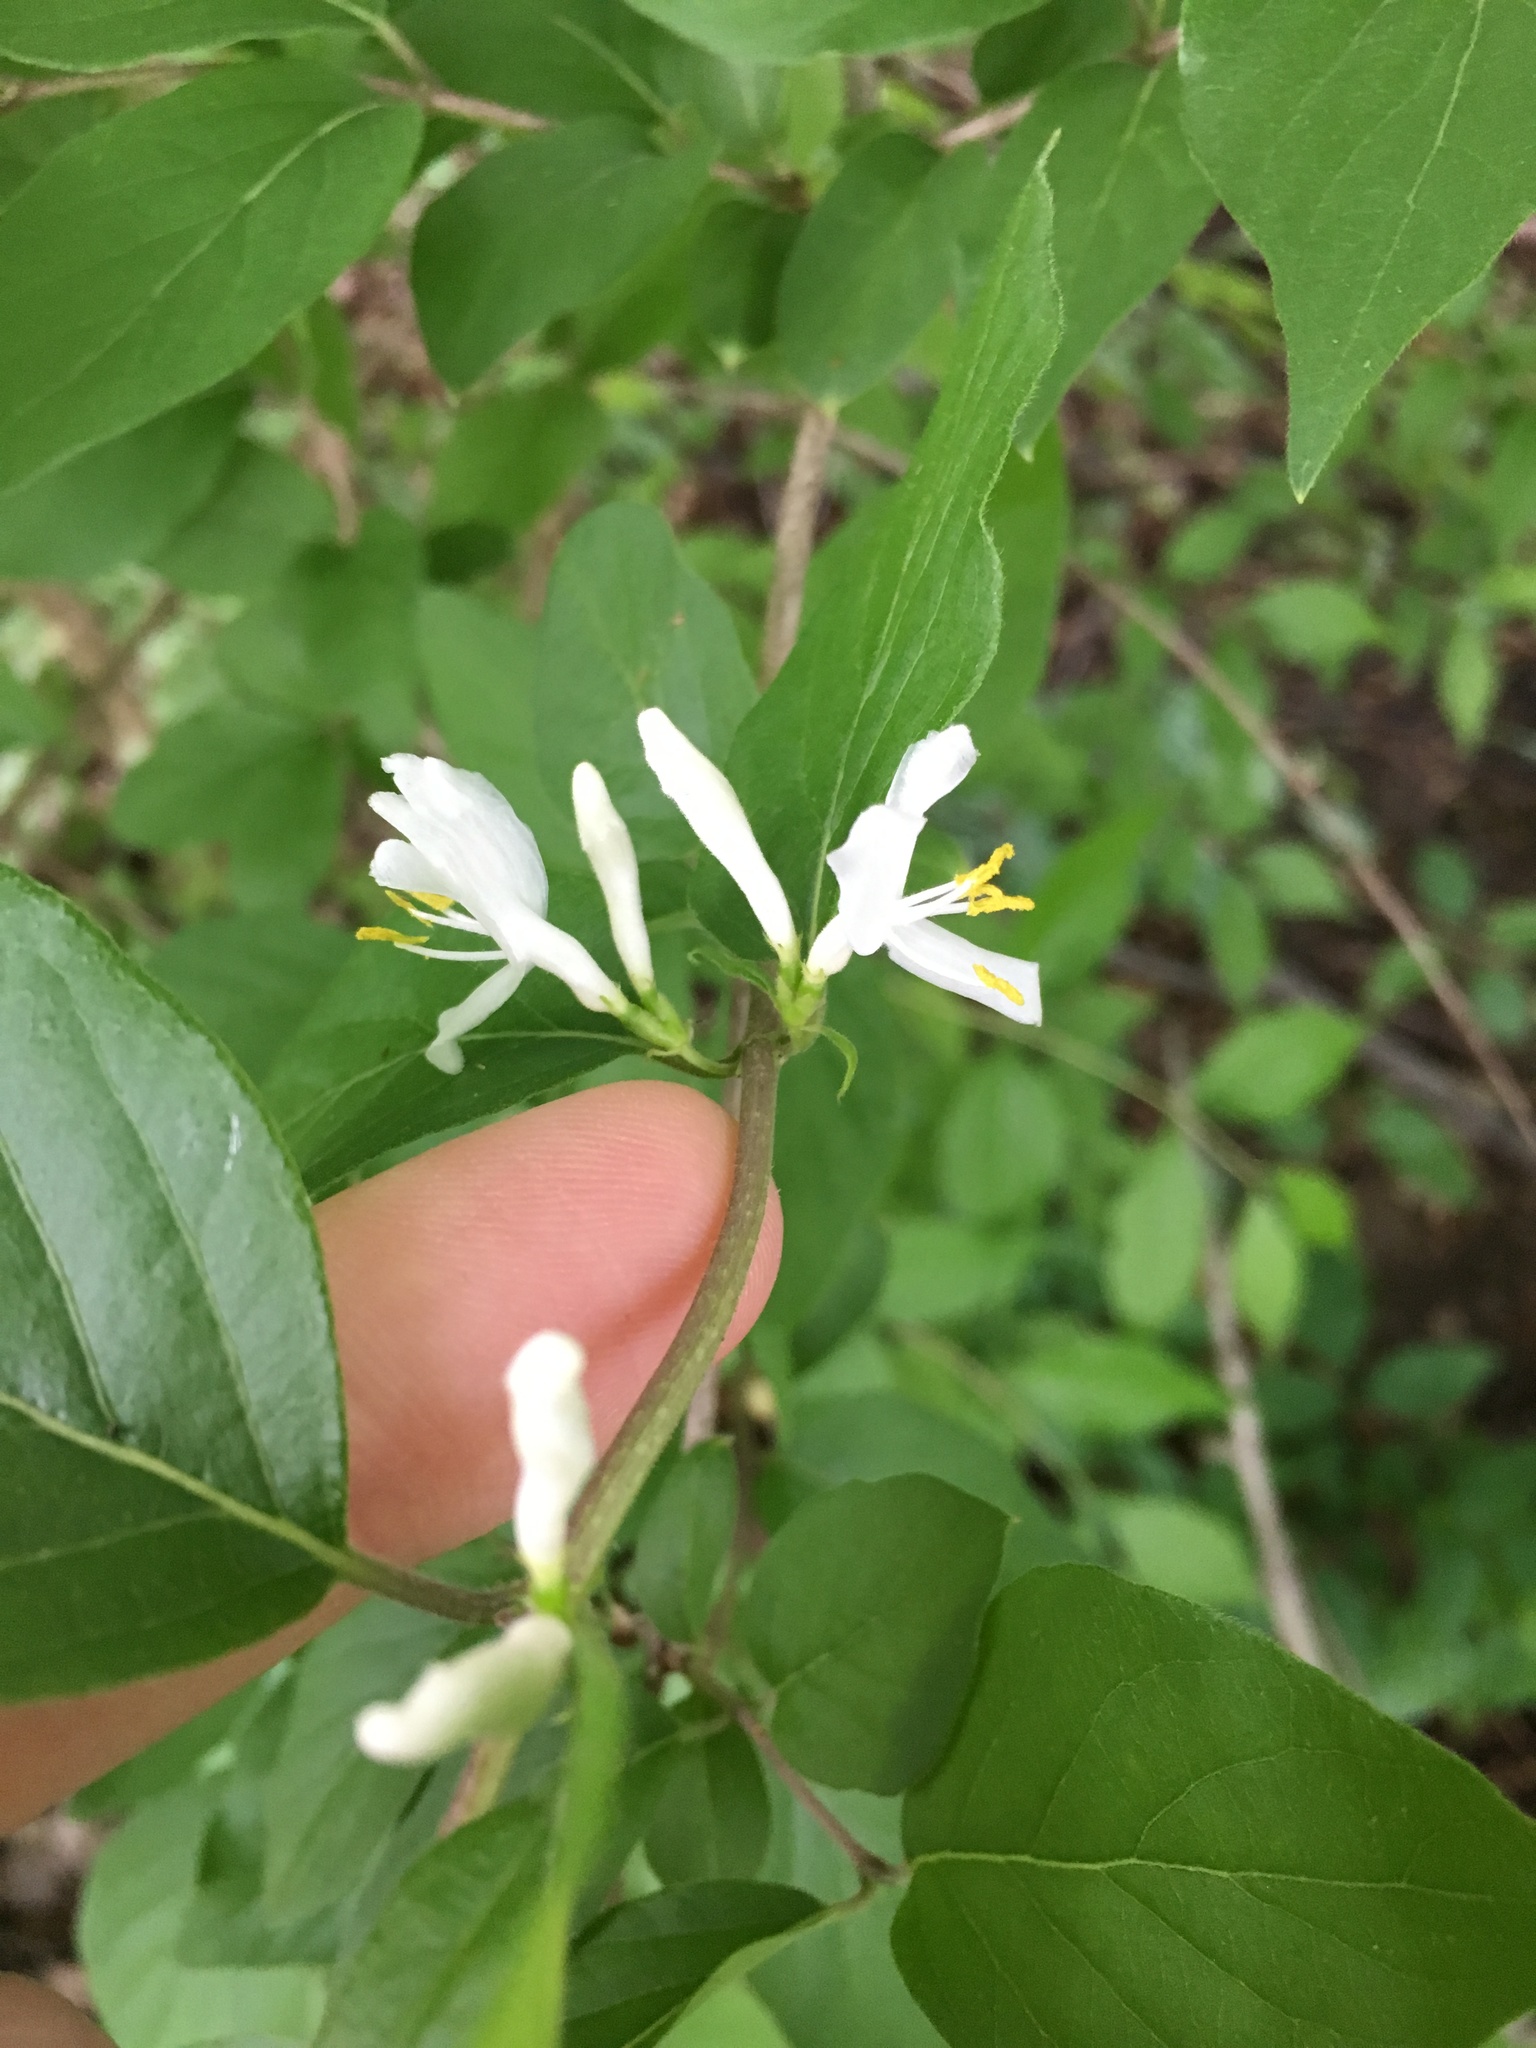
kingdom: Plantae
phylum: Tracheophyta
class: Magnoliopsida
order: Dipsacales
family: Caprifoliaceae
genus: Lonicera
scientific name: Lonicera maackii
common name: Amur honeysuckle
